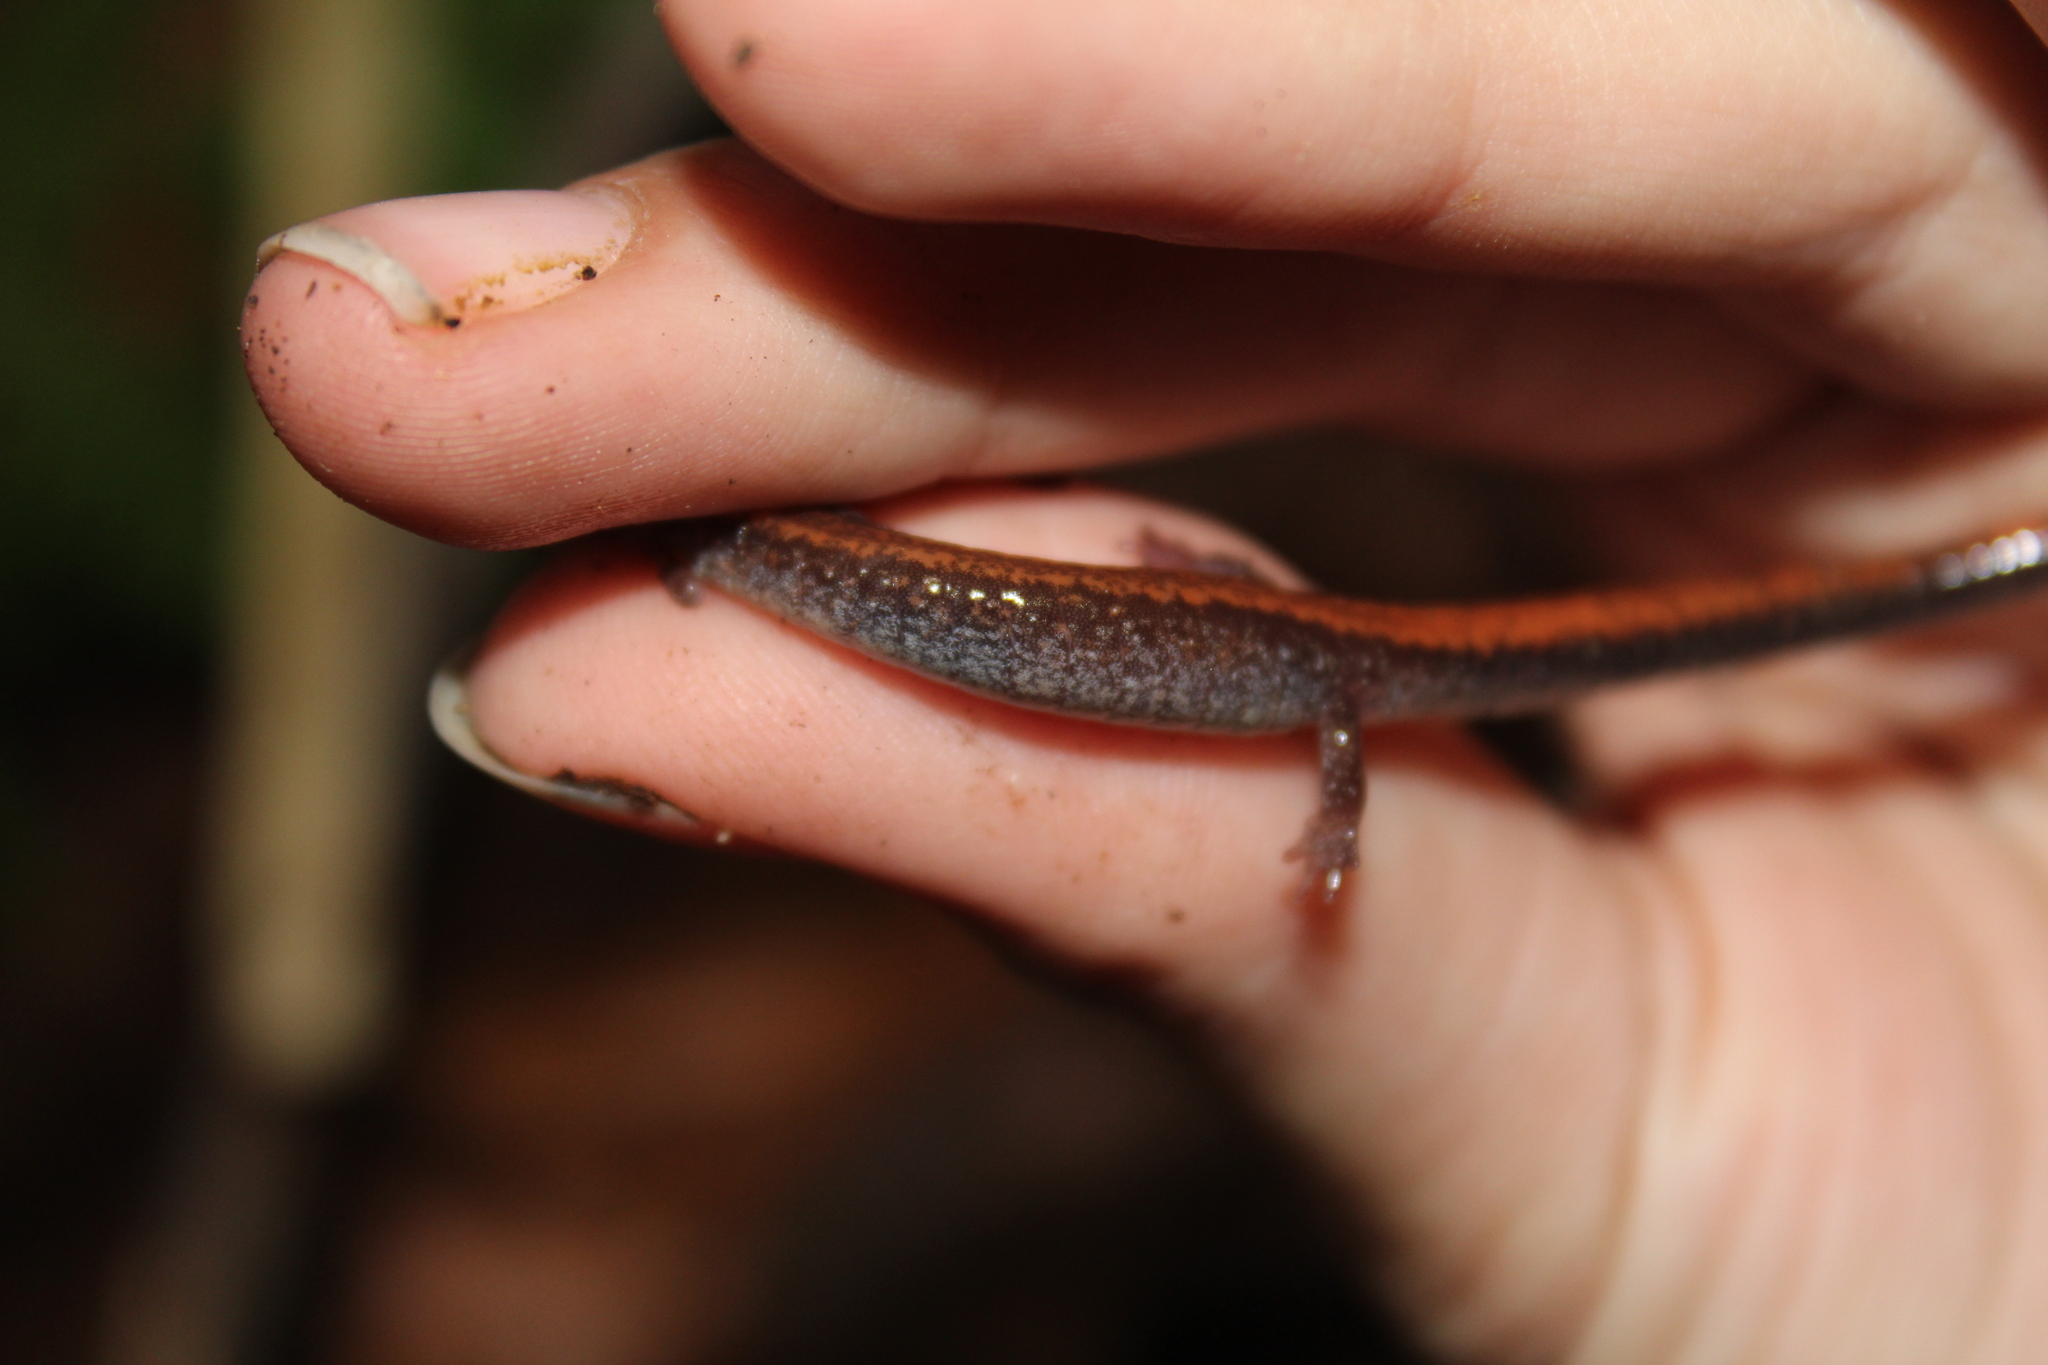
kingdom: Animalia
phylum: Chordata
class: Amphibia
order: Caudata
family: Plethodontidae
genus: Plethodon
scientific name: Plethodon cinereus
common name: Redback salamander
